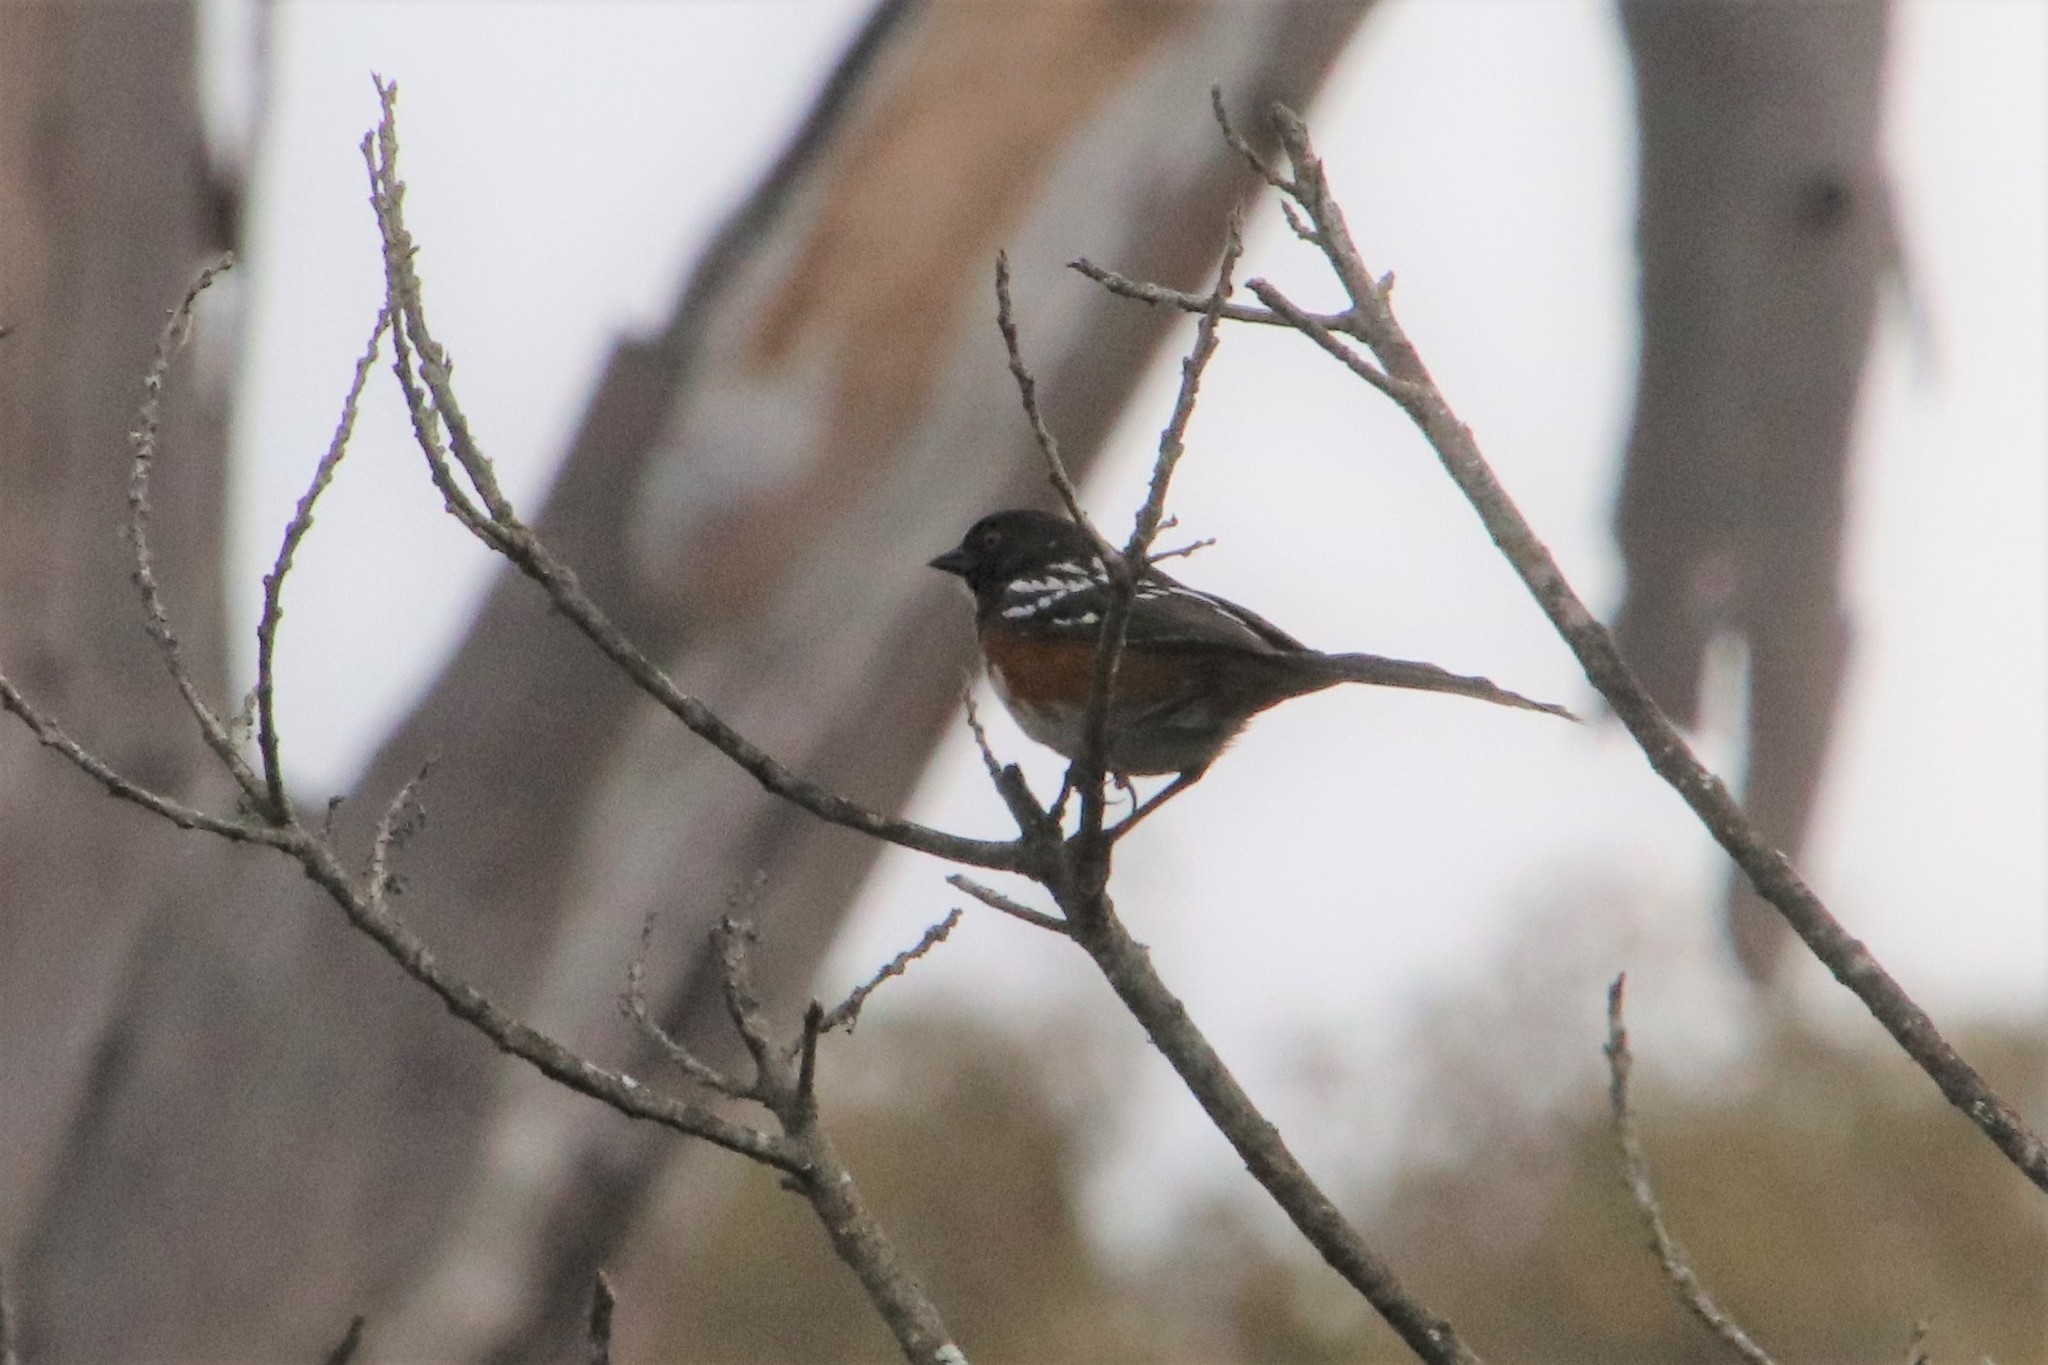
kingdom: Animalia
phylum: Chordata
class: Aves
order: Passeriformes
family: Passerellidae
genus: Pipilo
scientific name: Pipilo maculatus
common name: Spotted towhee
